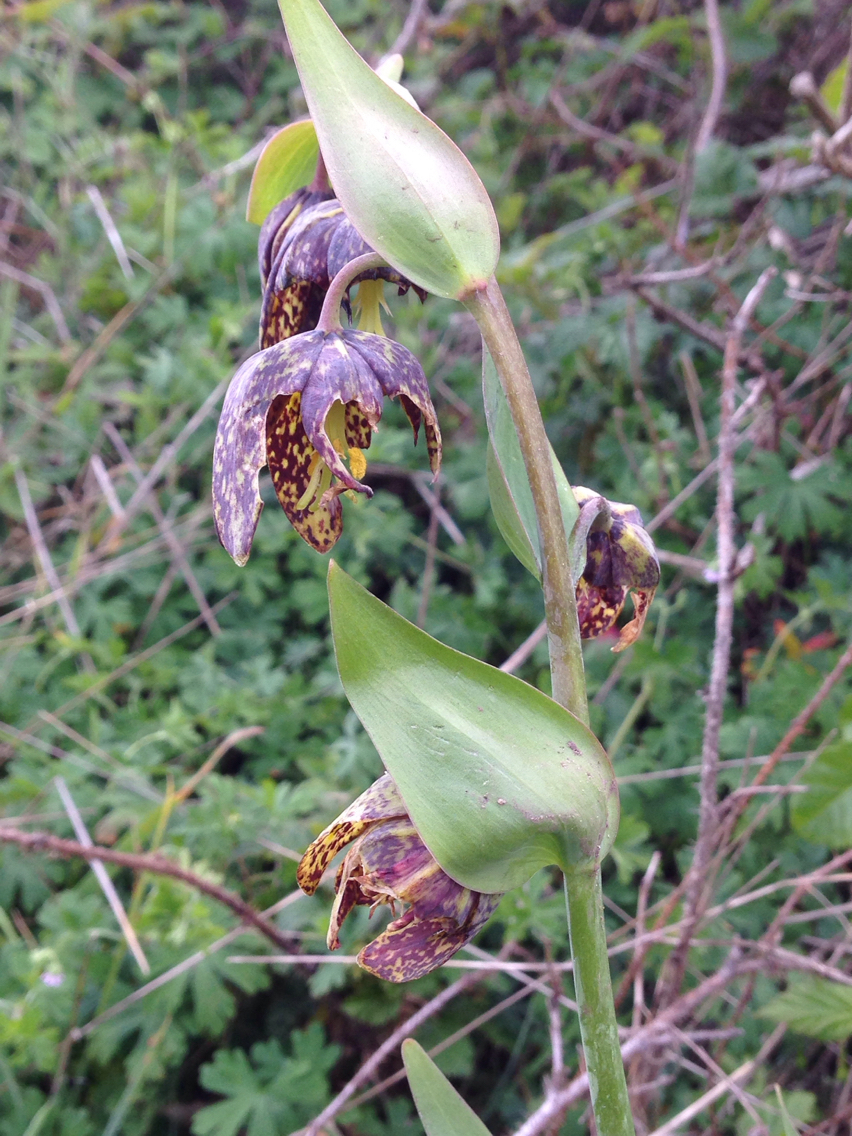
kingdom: Plantae
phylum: Tracheophyta
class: Liliopsida
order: Liliales
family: Liliaceae
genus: Fritillaria
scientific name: Fritillaria affinis
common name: Ojai fritillary
